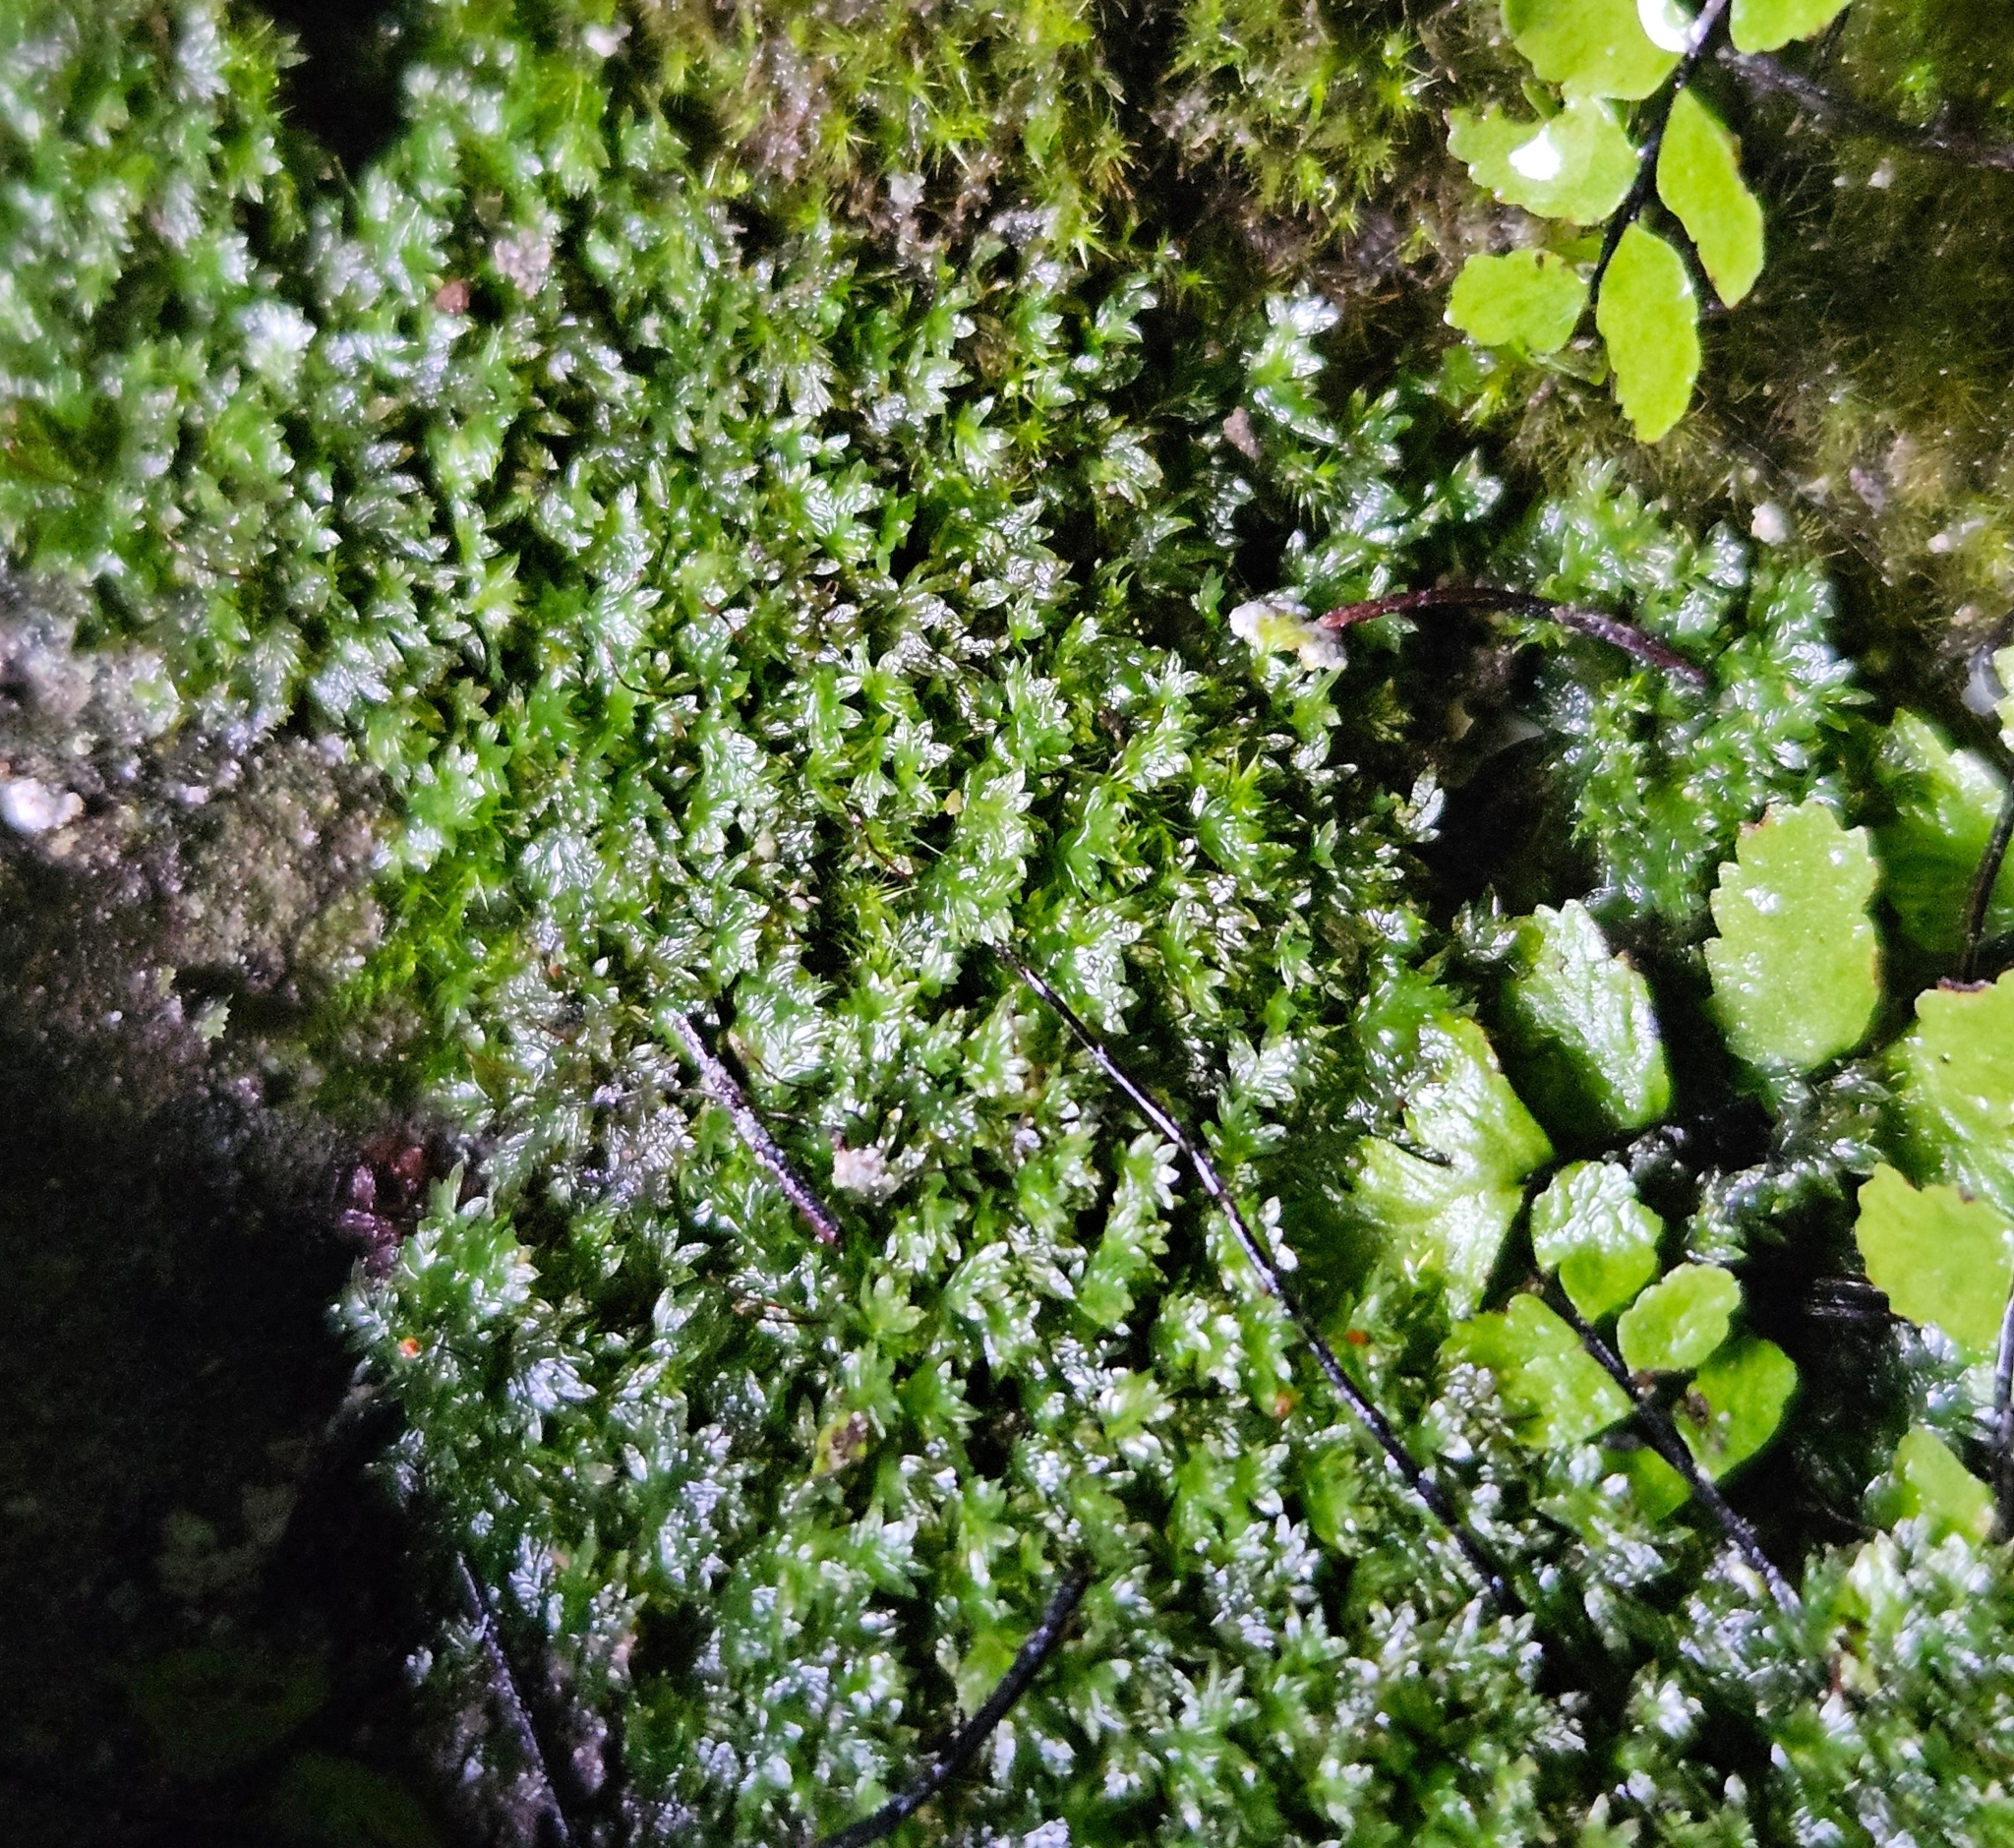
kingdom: Plantae
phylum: Bryophyta
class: Bryopsida
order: Dicranales
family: Fissidentaceae
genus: Fissidens
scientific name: Fissidens viridulus
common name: Green pocket-moss
